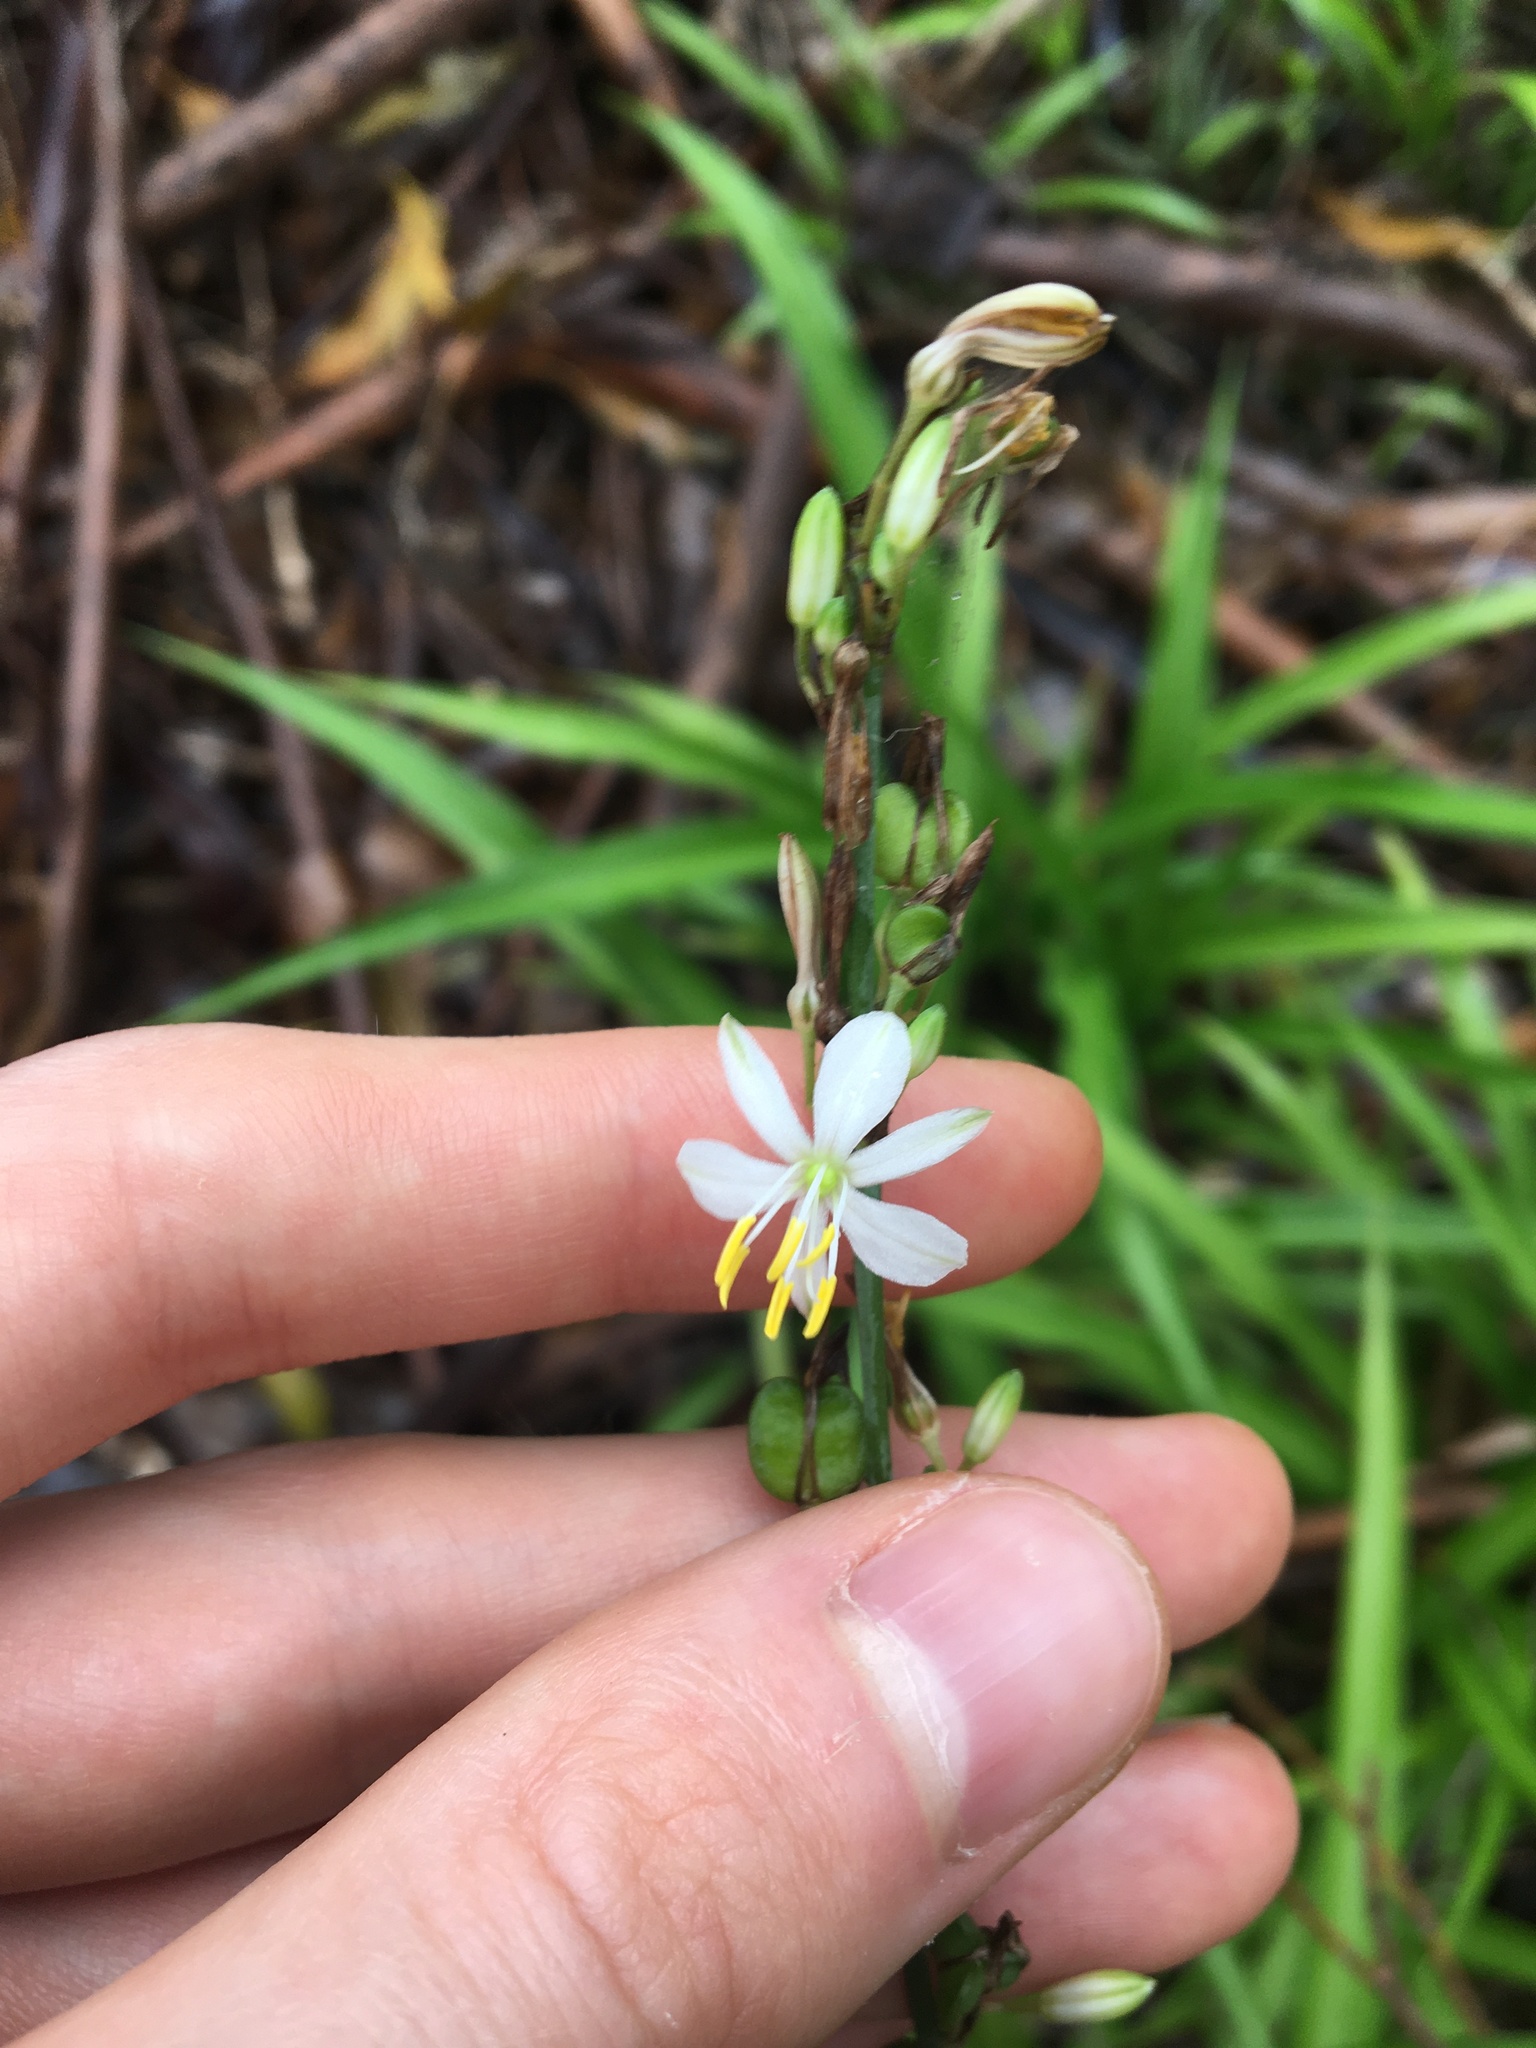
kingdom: Plantae
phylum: Tracheophyta
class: Liliopsida
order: Asparagales
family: Asparagaceae
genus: Chlorophytum
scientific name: Chlorophytum comosum
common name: Spider plant
